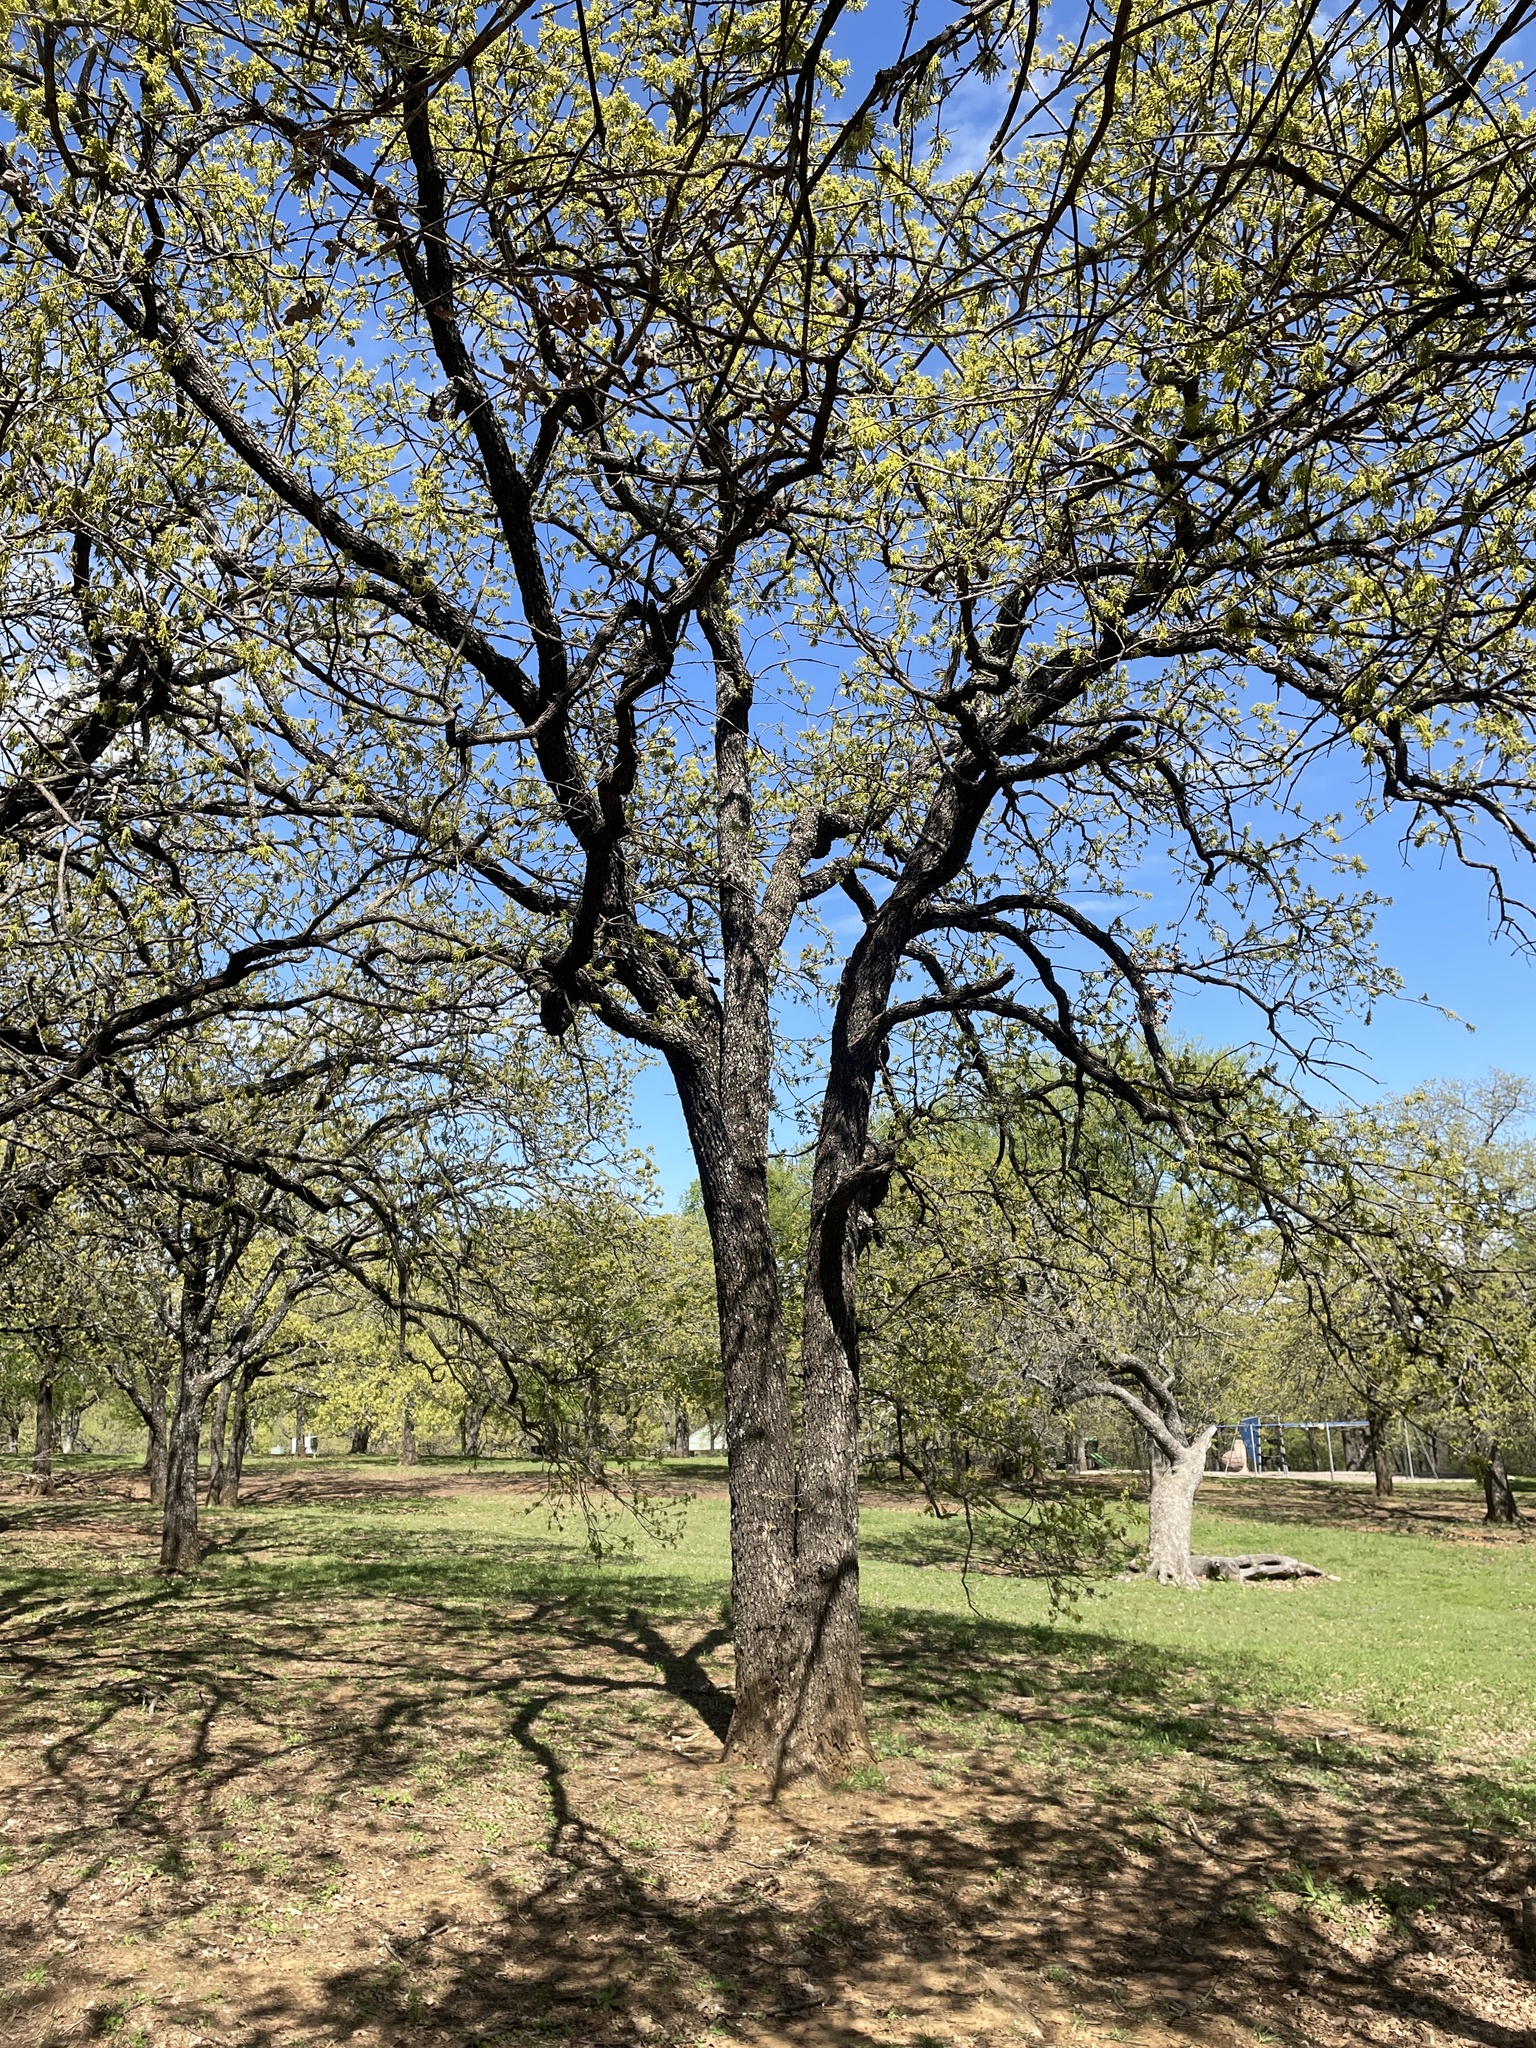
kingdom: Plantae
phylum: Tracheophyta
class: Magnoliopsida
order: Fagales
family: Fagaceae
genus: Quercus
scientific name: Quercus stellata
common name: Post oak
